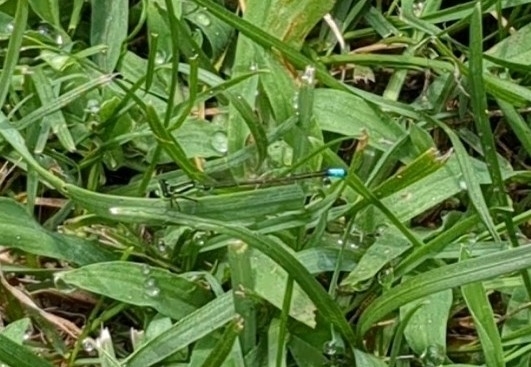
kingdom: Animalia
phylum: Arthropoda
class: Insecta
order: Odonata
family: Coenagrionidae
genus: Ischnura
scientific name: Ischnura verticalis
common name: Eastern forktail
